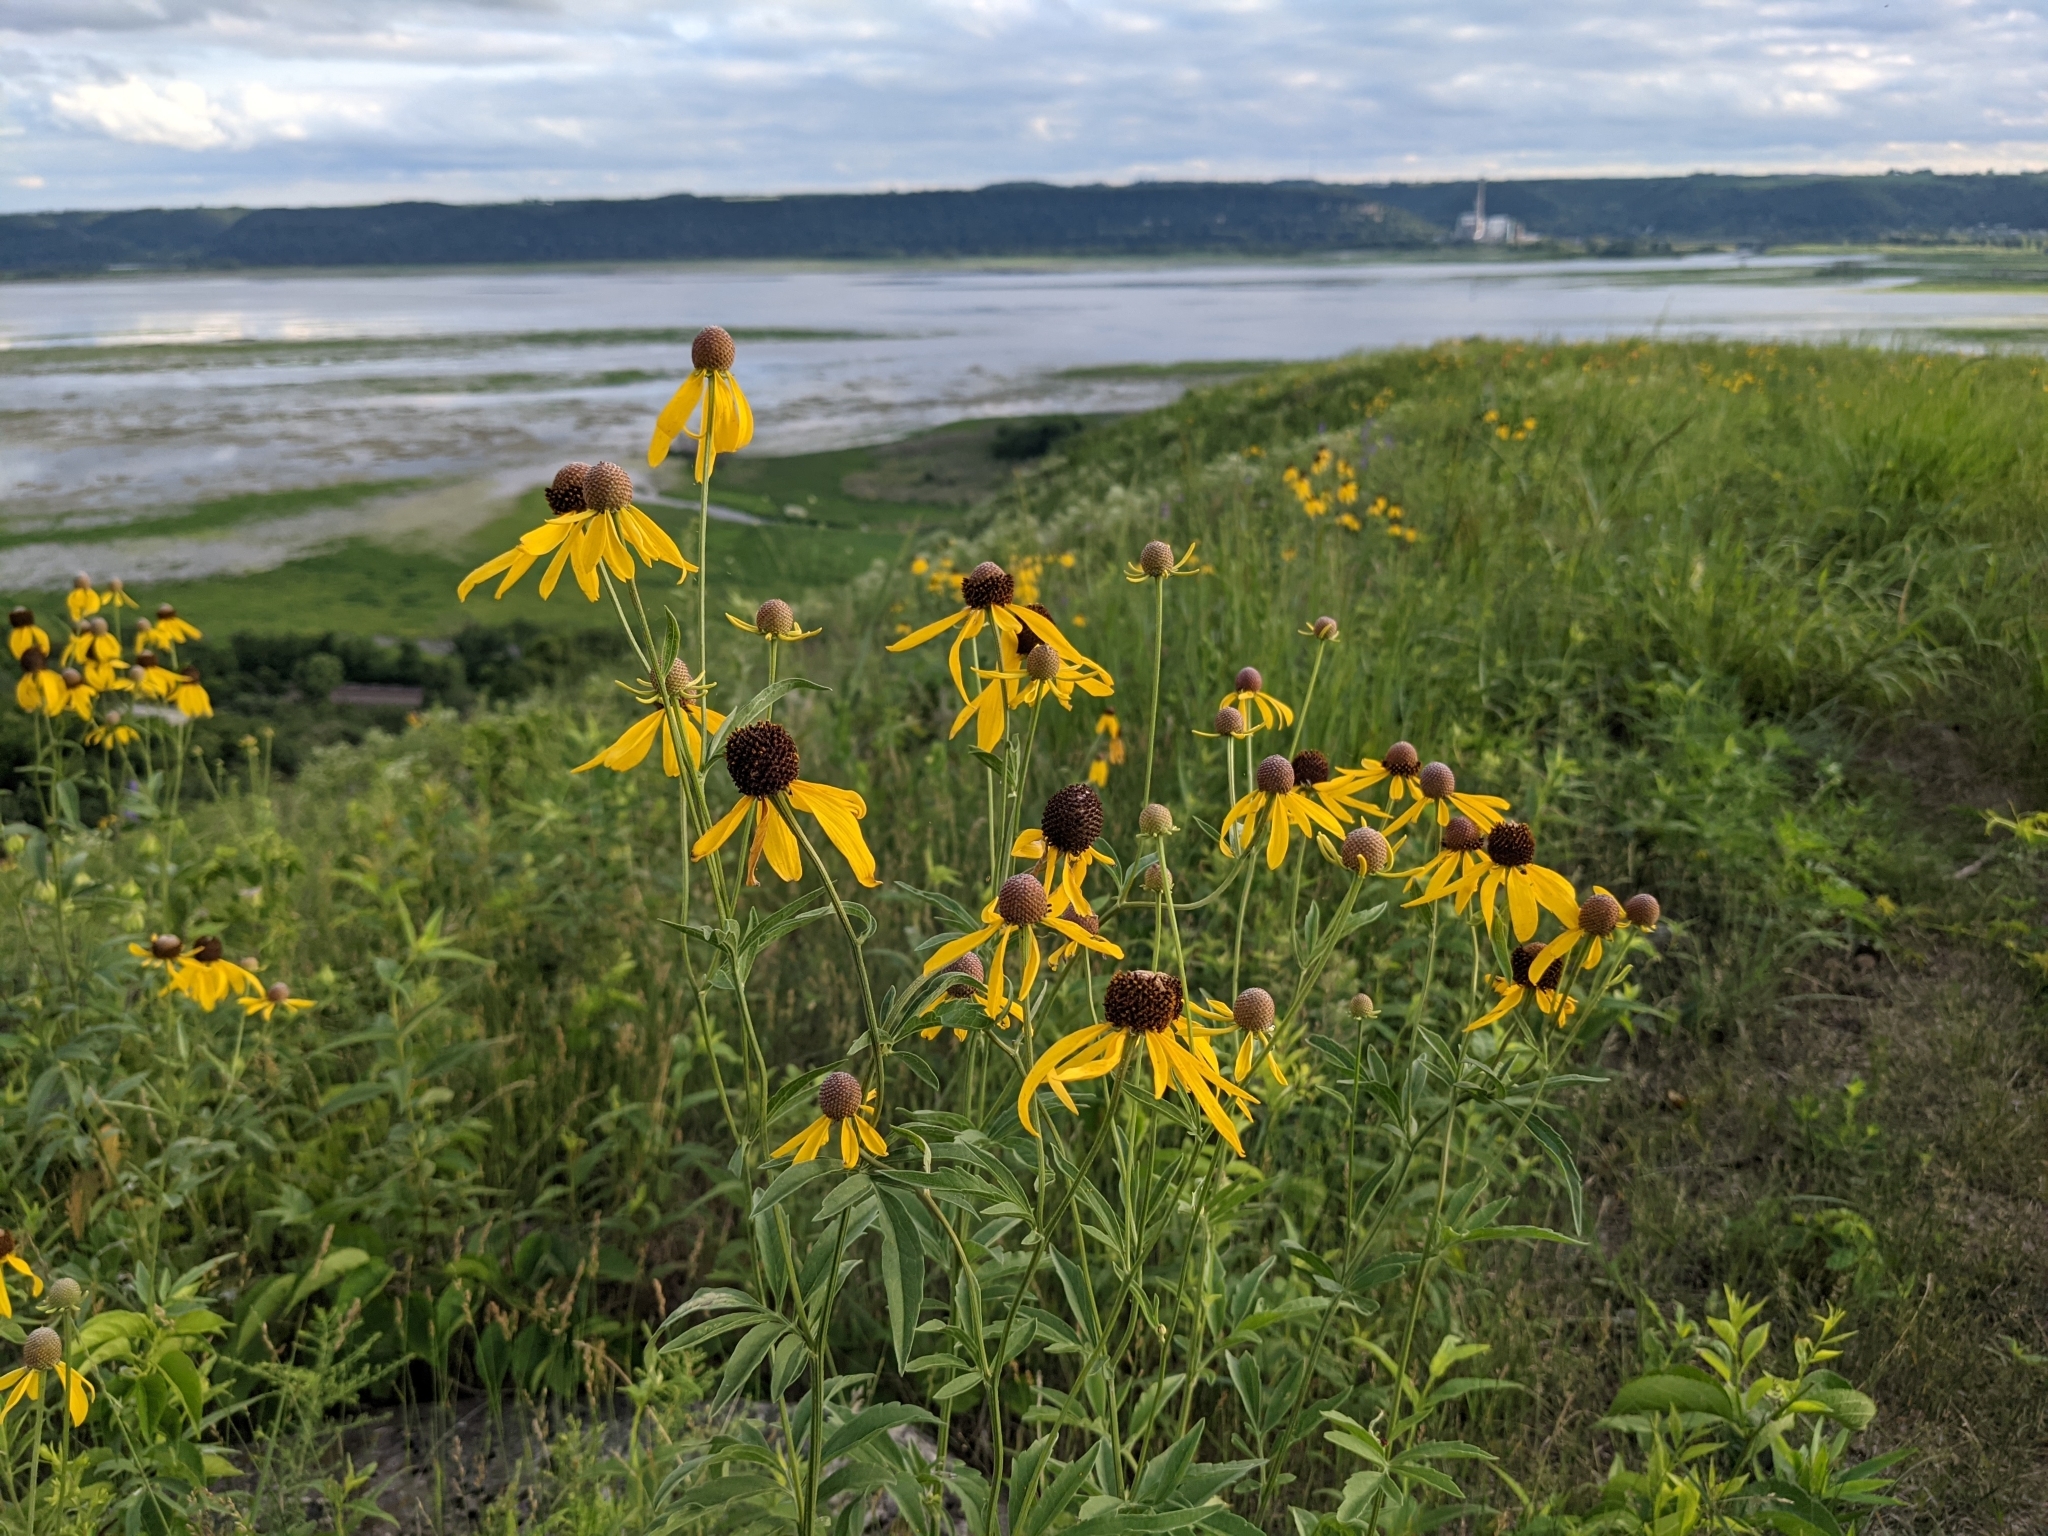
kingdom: Plantae
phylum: Tracheophyta
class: Magnoliopsida
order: Asterales
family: Asteraceae
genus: Ratibida
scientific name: Ratibida pinnata
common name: Drooping prairie-coneflower
